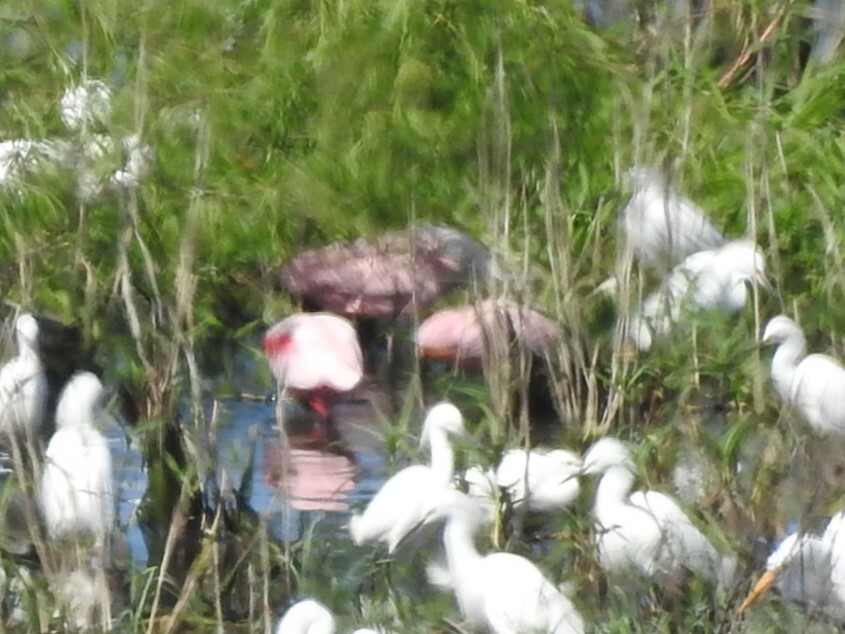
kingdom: Animalia
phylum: Chordata
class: Aves
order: Pelecaniformes
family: Threskiornithidae
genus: Platalea
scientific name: Platalea ajaja
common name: Roseate spoonbill
